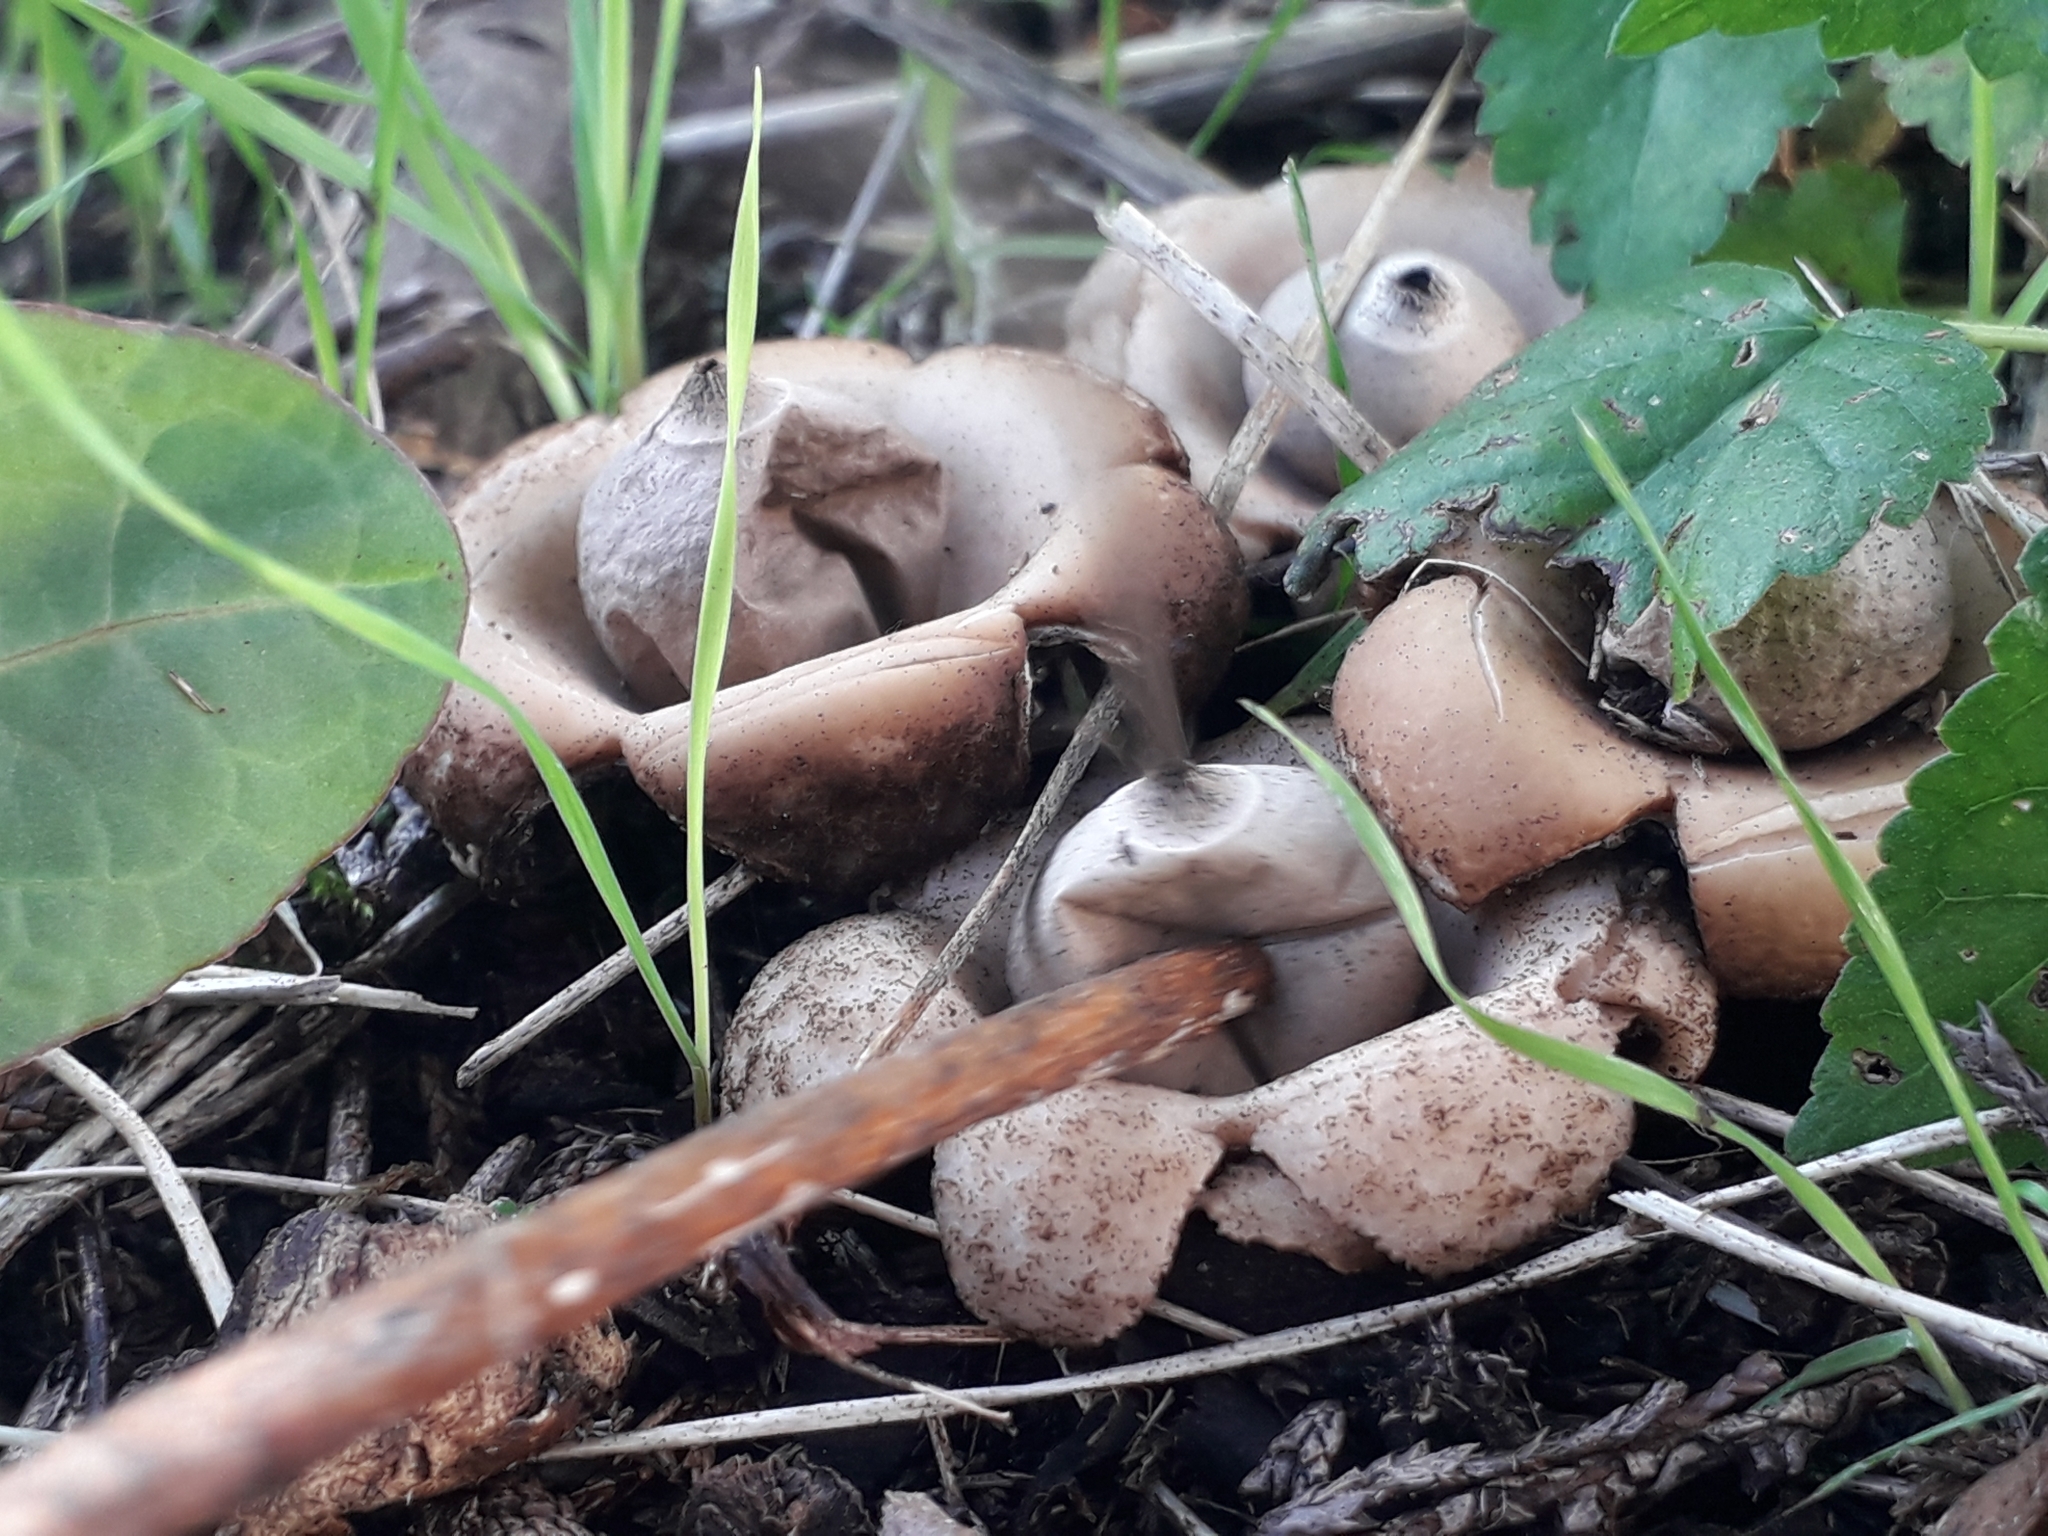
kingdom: Fungi
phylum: Basidiomycota
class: Agaricomycetes
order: Geastrales
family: Geastraceae
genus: Geastrum
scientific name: Geastrum triplex
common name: Collared earthstar
